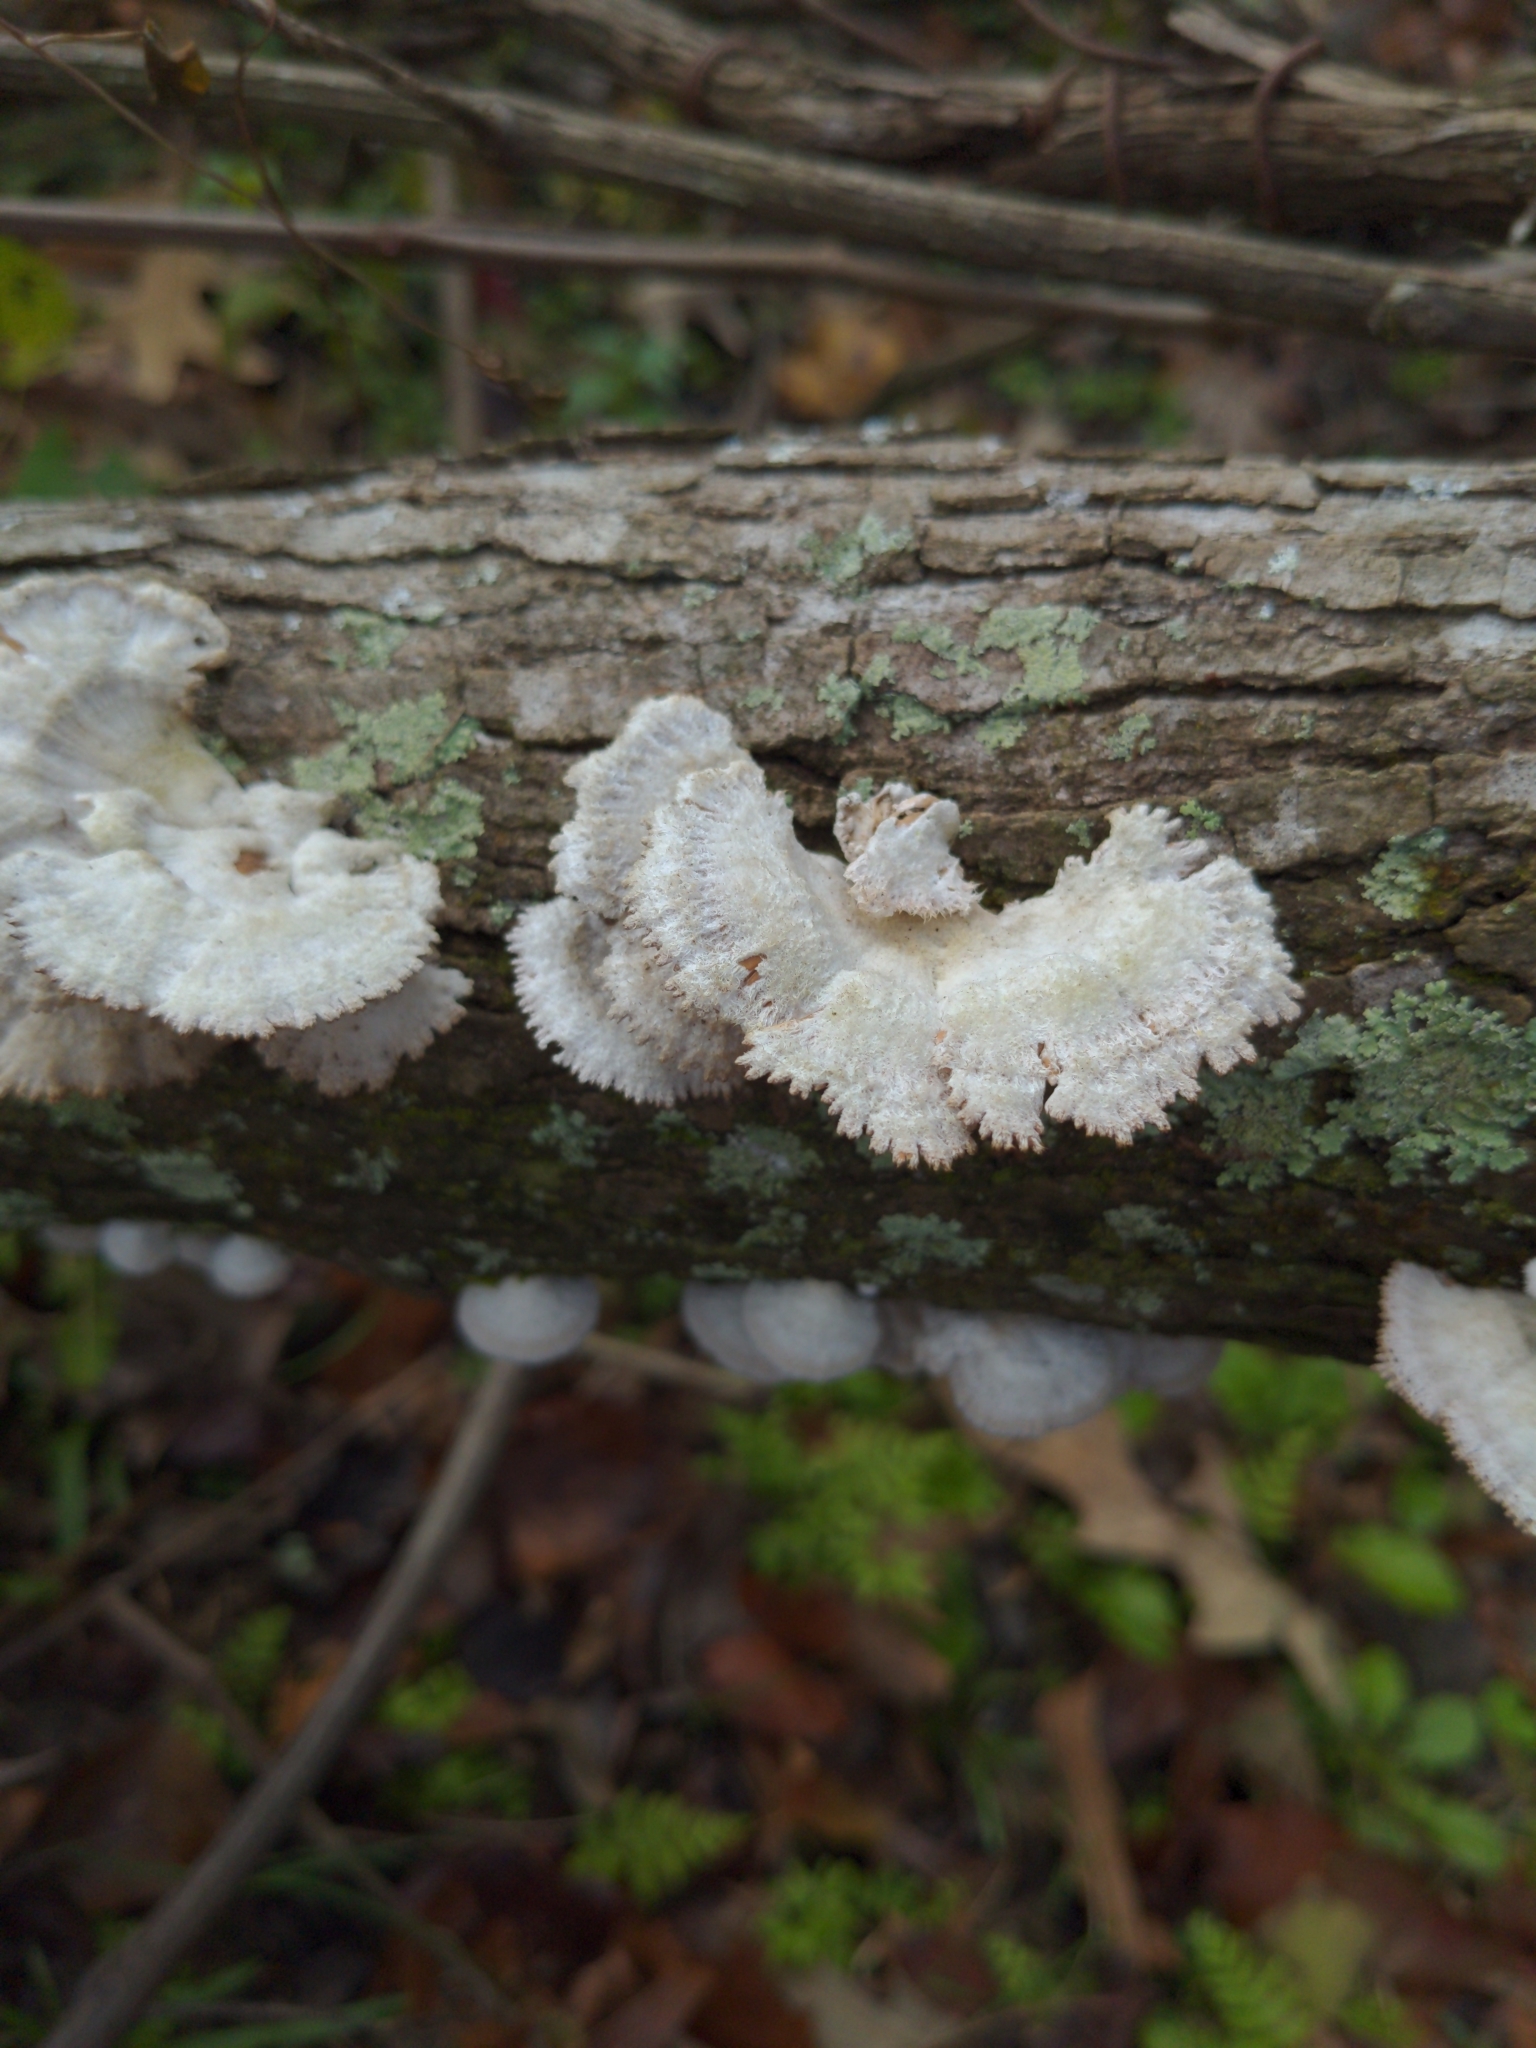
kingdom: Fungi
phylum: Basidiomycota
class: Agaricomycetes
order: Agaricales
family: Schizophyllaceae
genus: Schizophyllum
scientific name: Schizophyllum commune
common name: Common porecrust
